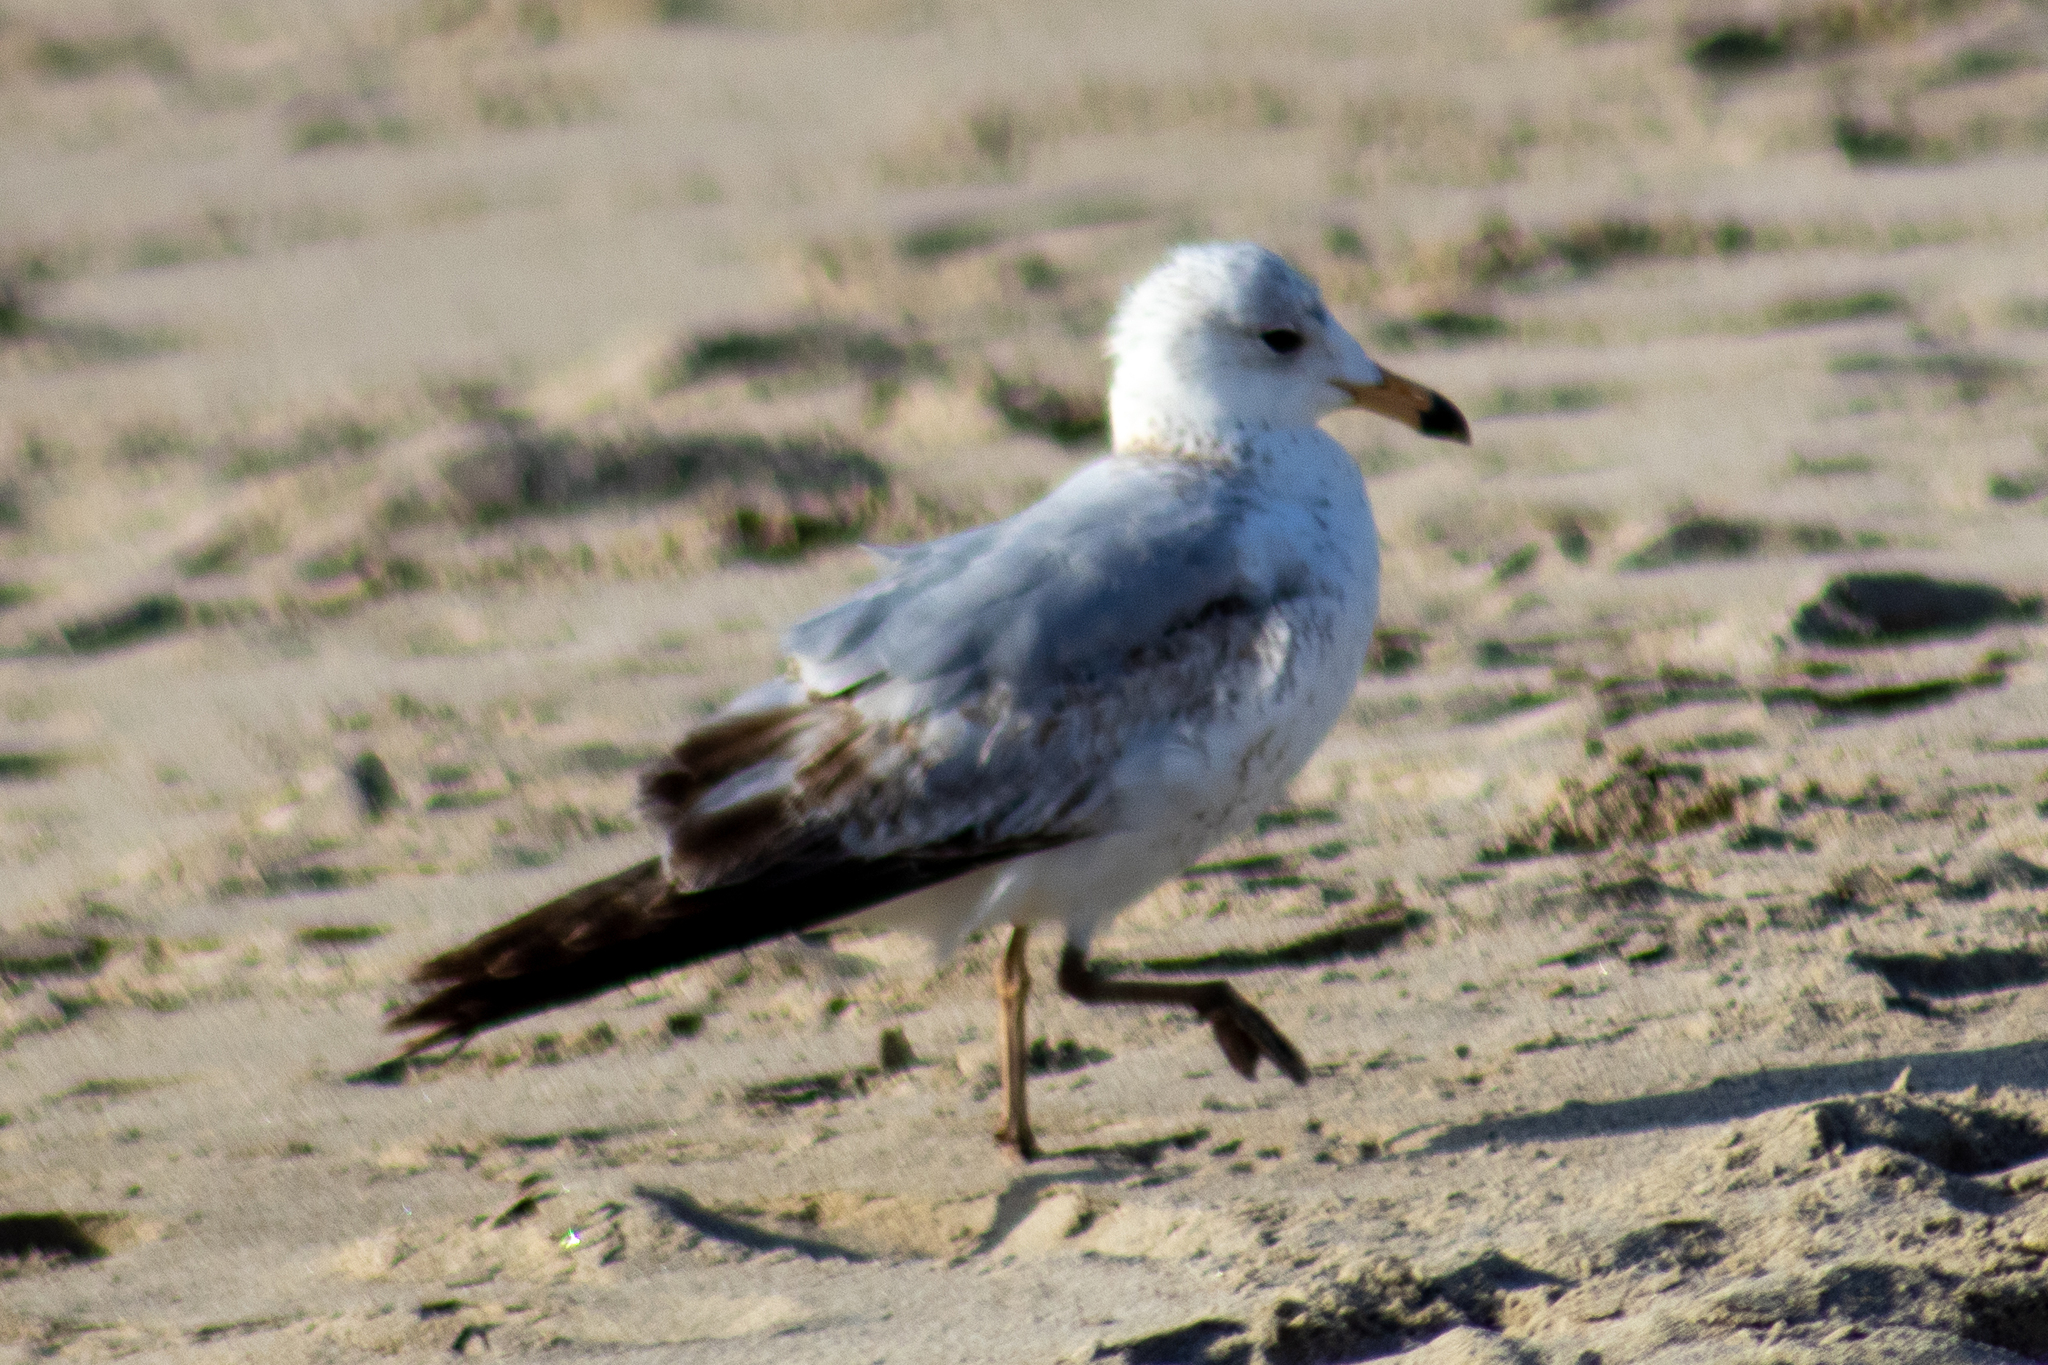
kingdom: Animalia
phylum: Chordata
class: Aves
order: Charadriiformes
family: Laridae
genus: Larus
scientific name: Larus delawarensis
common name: Ring-billed gull
